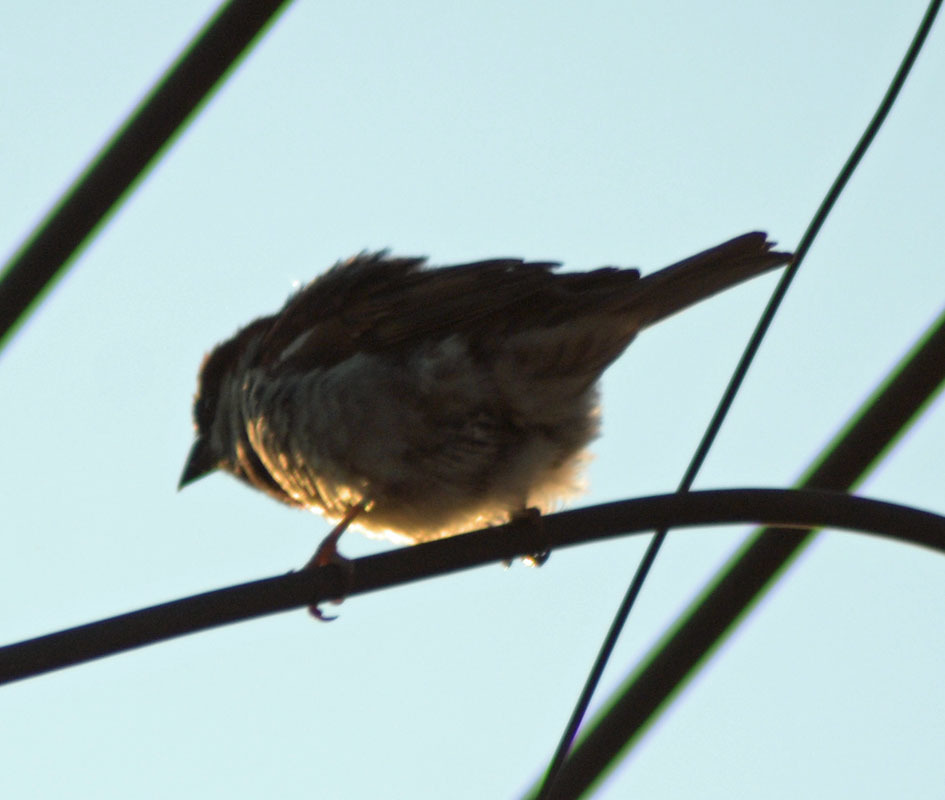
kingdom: Animalia
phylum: Chordata
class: Aves
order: Passeriformes
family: Passeridae
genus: Passer
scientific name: Passer domesticus
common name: House sparrow
